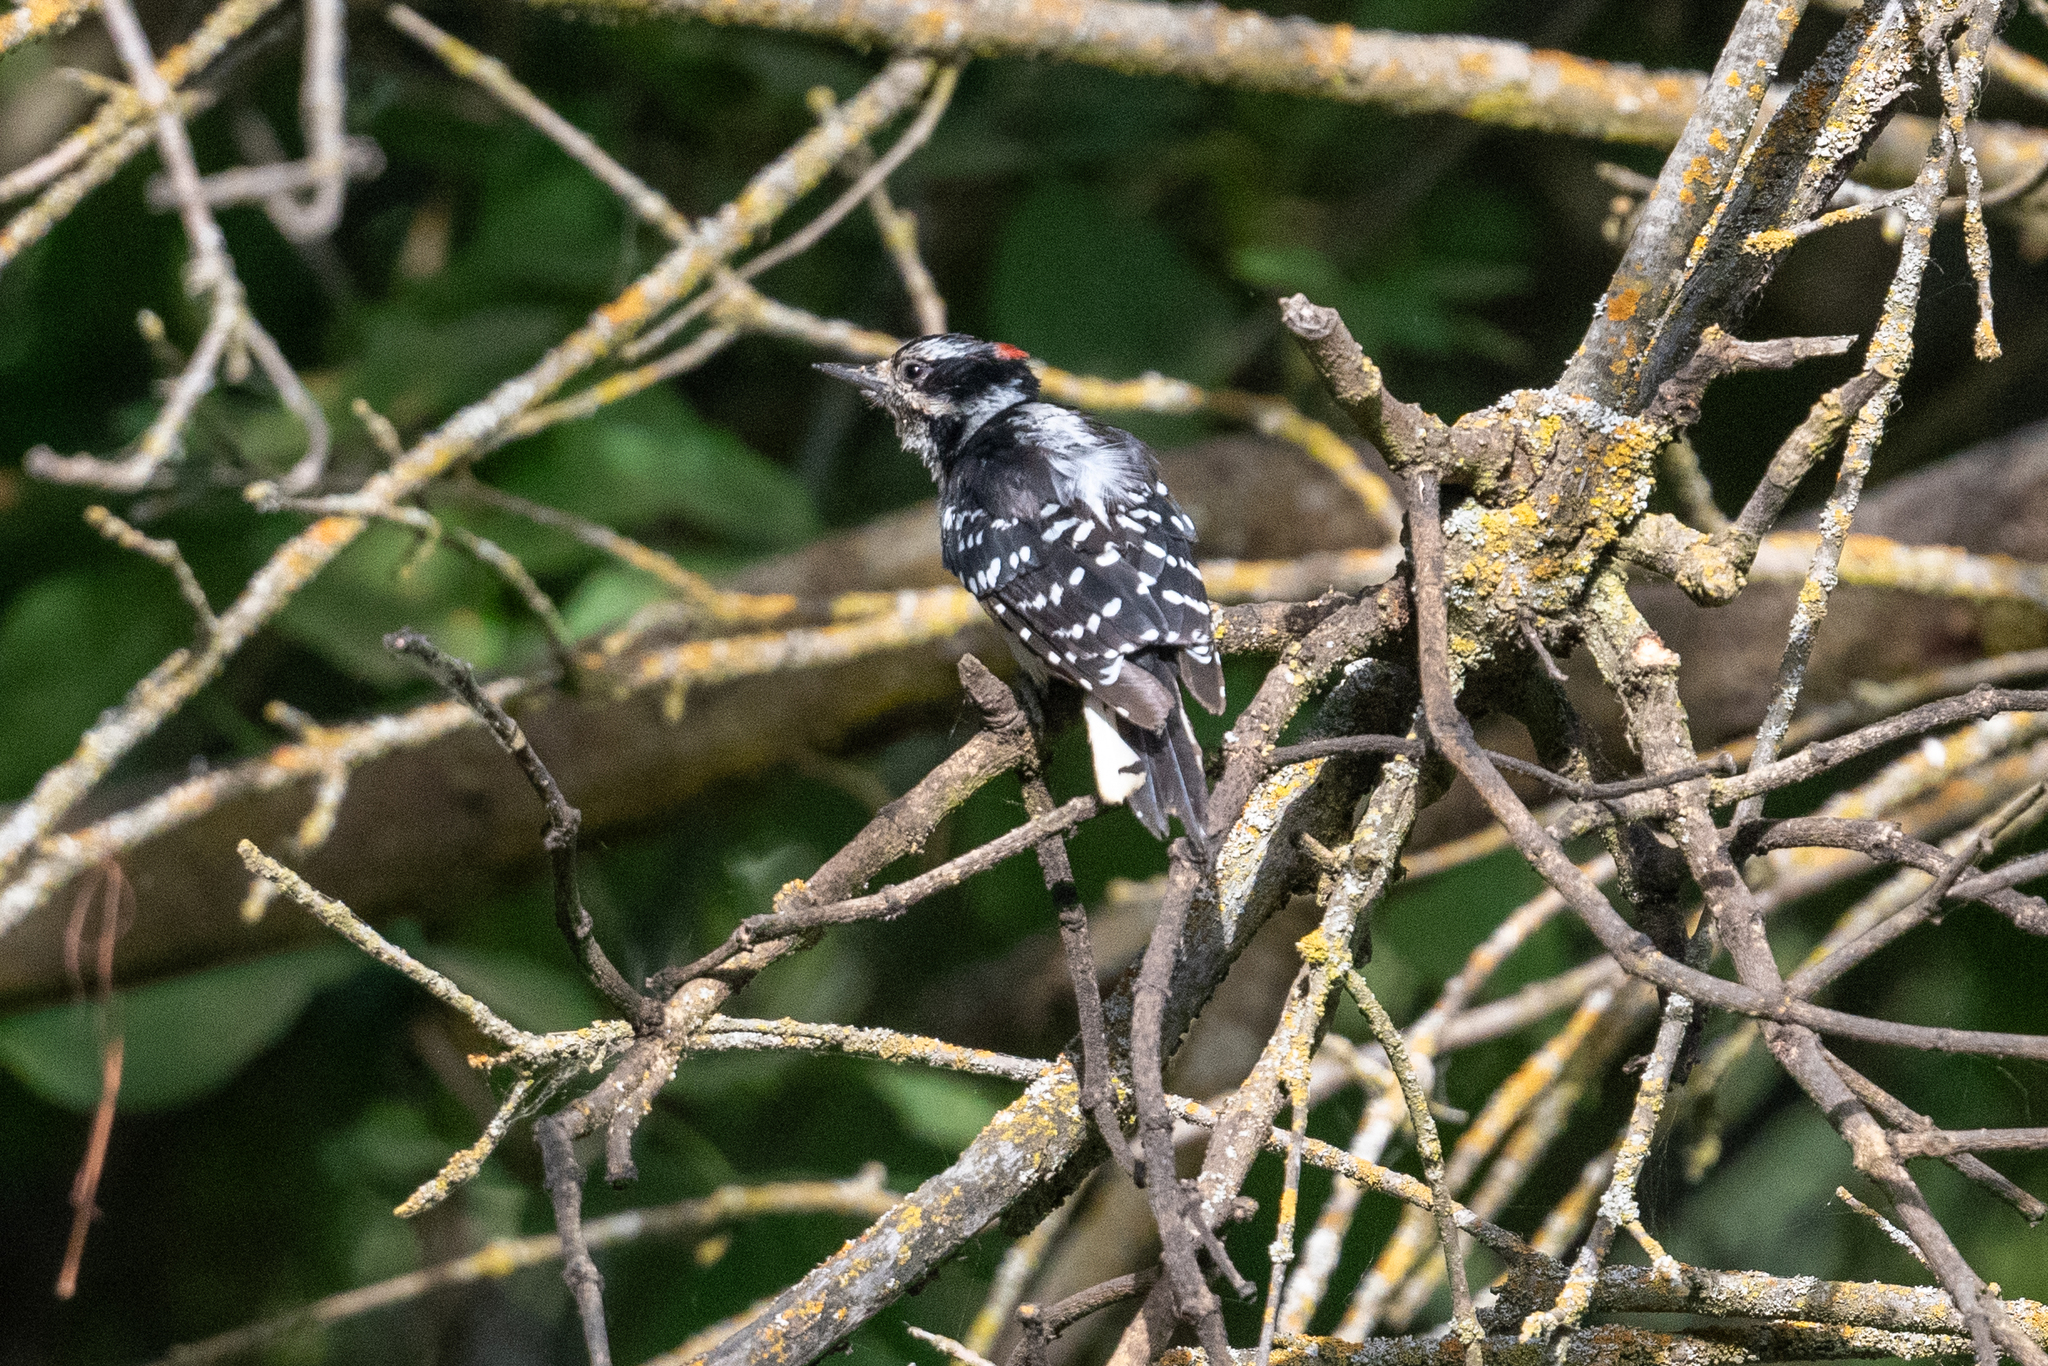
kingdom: Animalia
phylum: Chordata
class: Aves
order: Piciformes
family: Picidae
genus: Dryobates
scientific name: Dryobates pubescens
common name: Downy woodpecker
